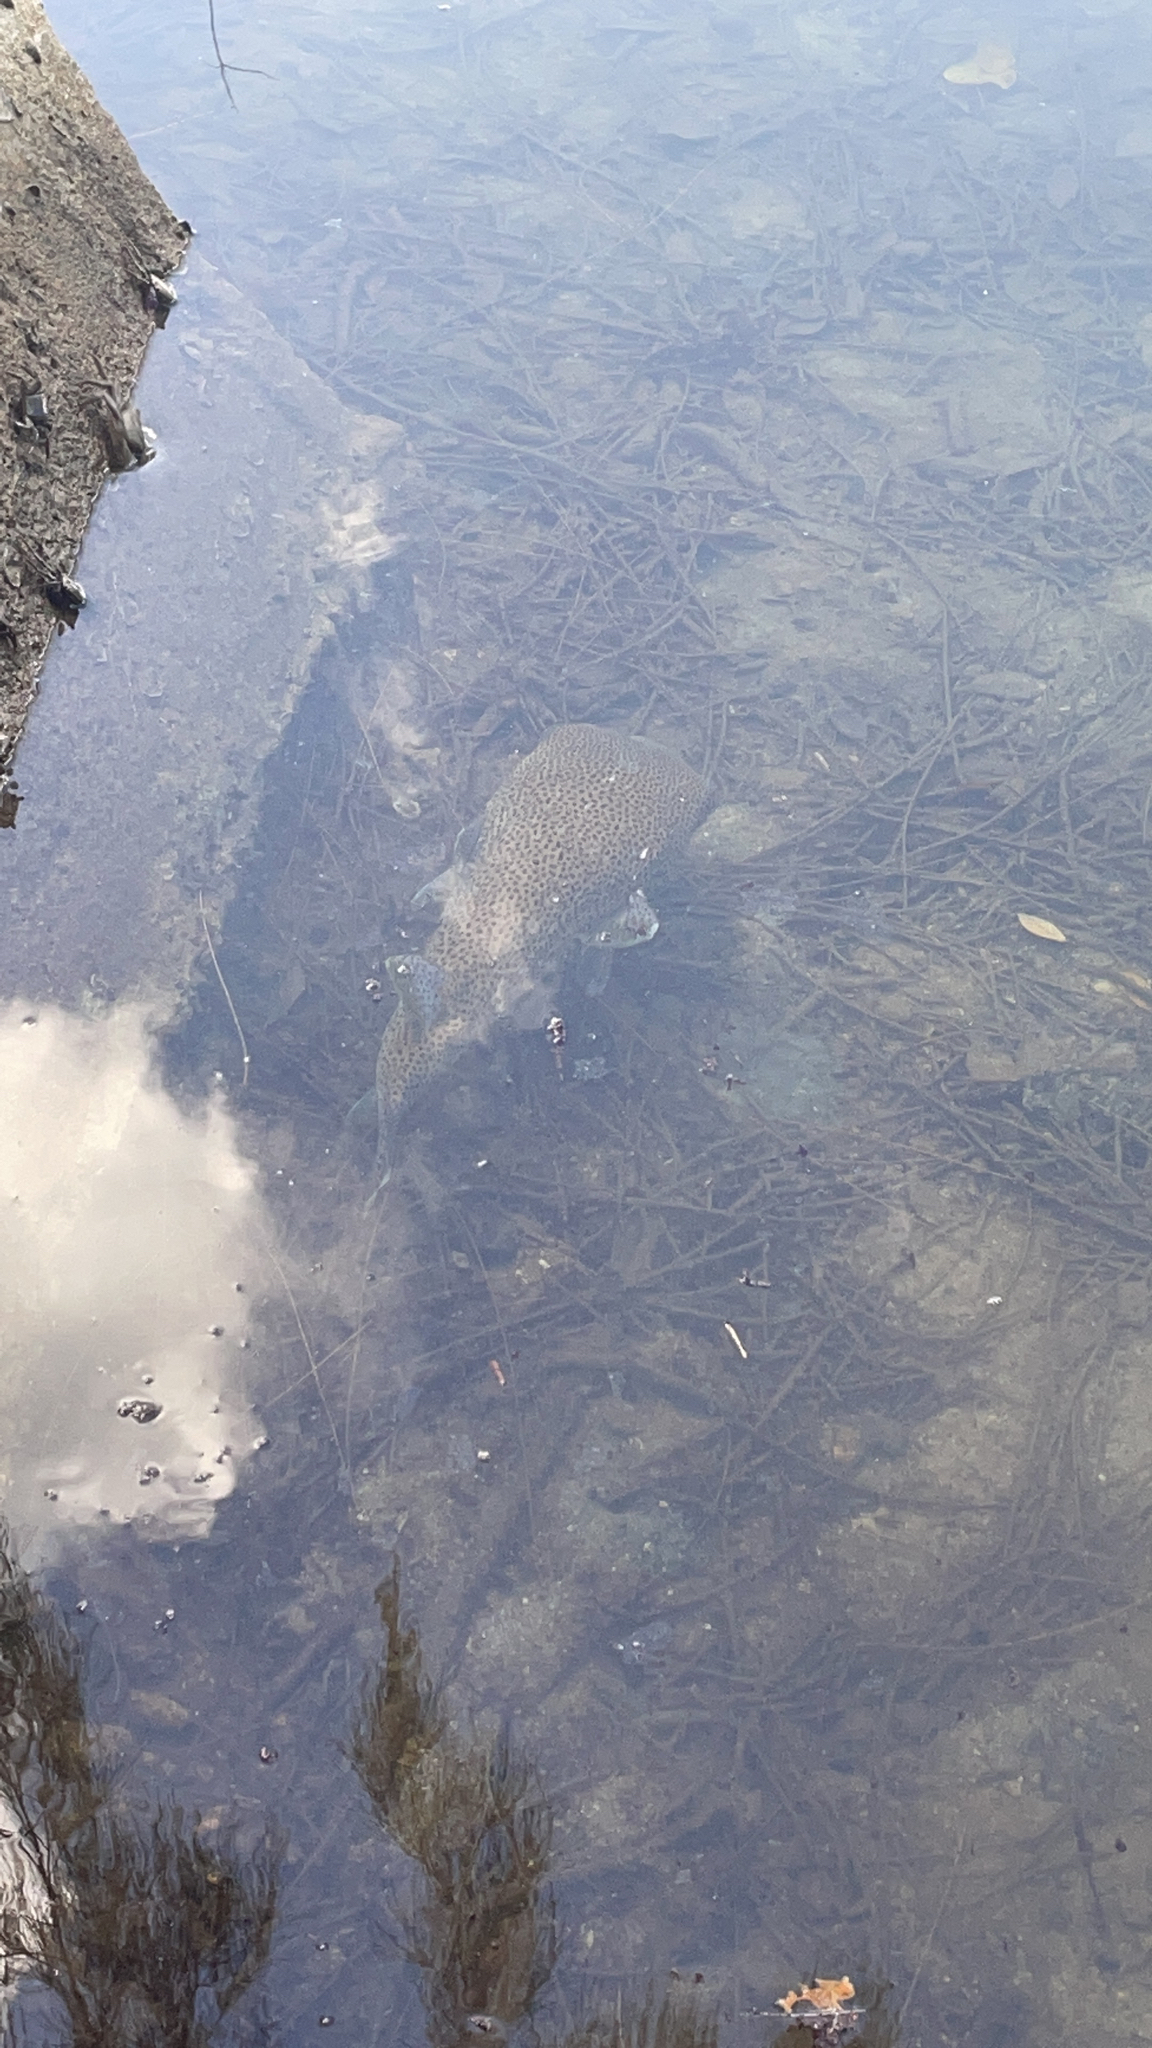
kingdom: Animalia
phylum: Chordata
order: Tetraodontiformes
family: Diodontidae
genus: Diodon
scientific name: Diodon hystrix
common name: Giant porcupinefish
